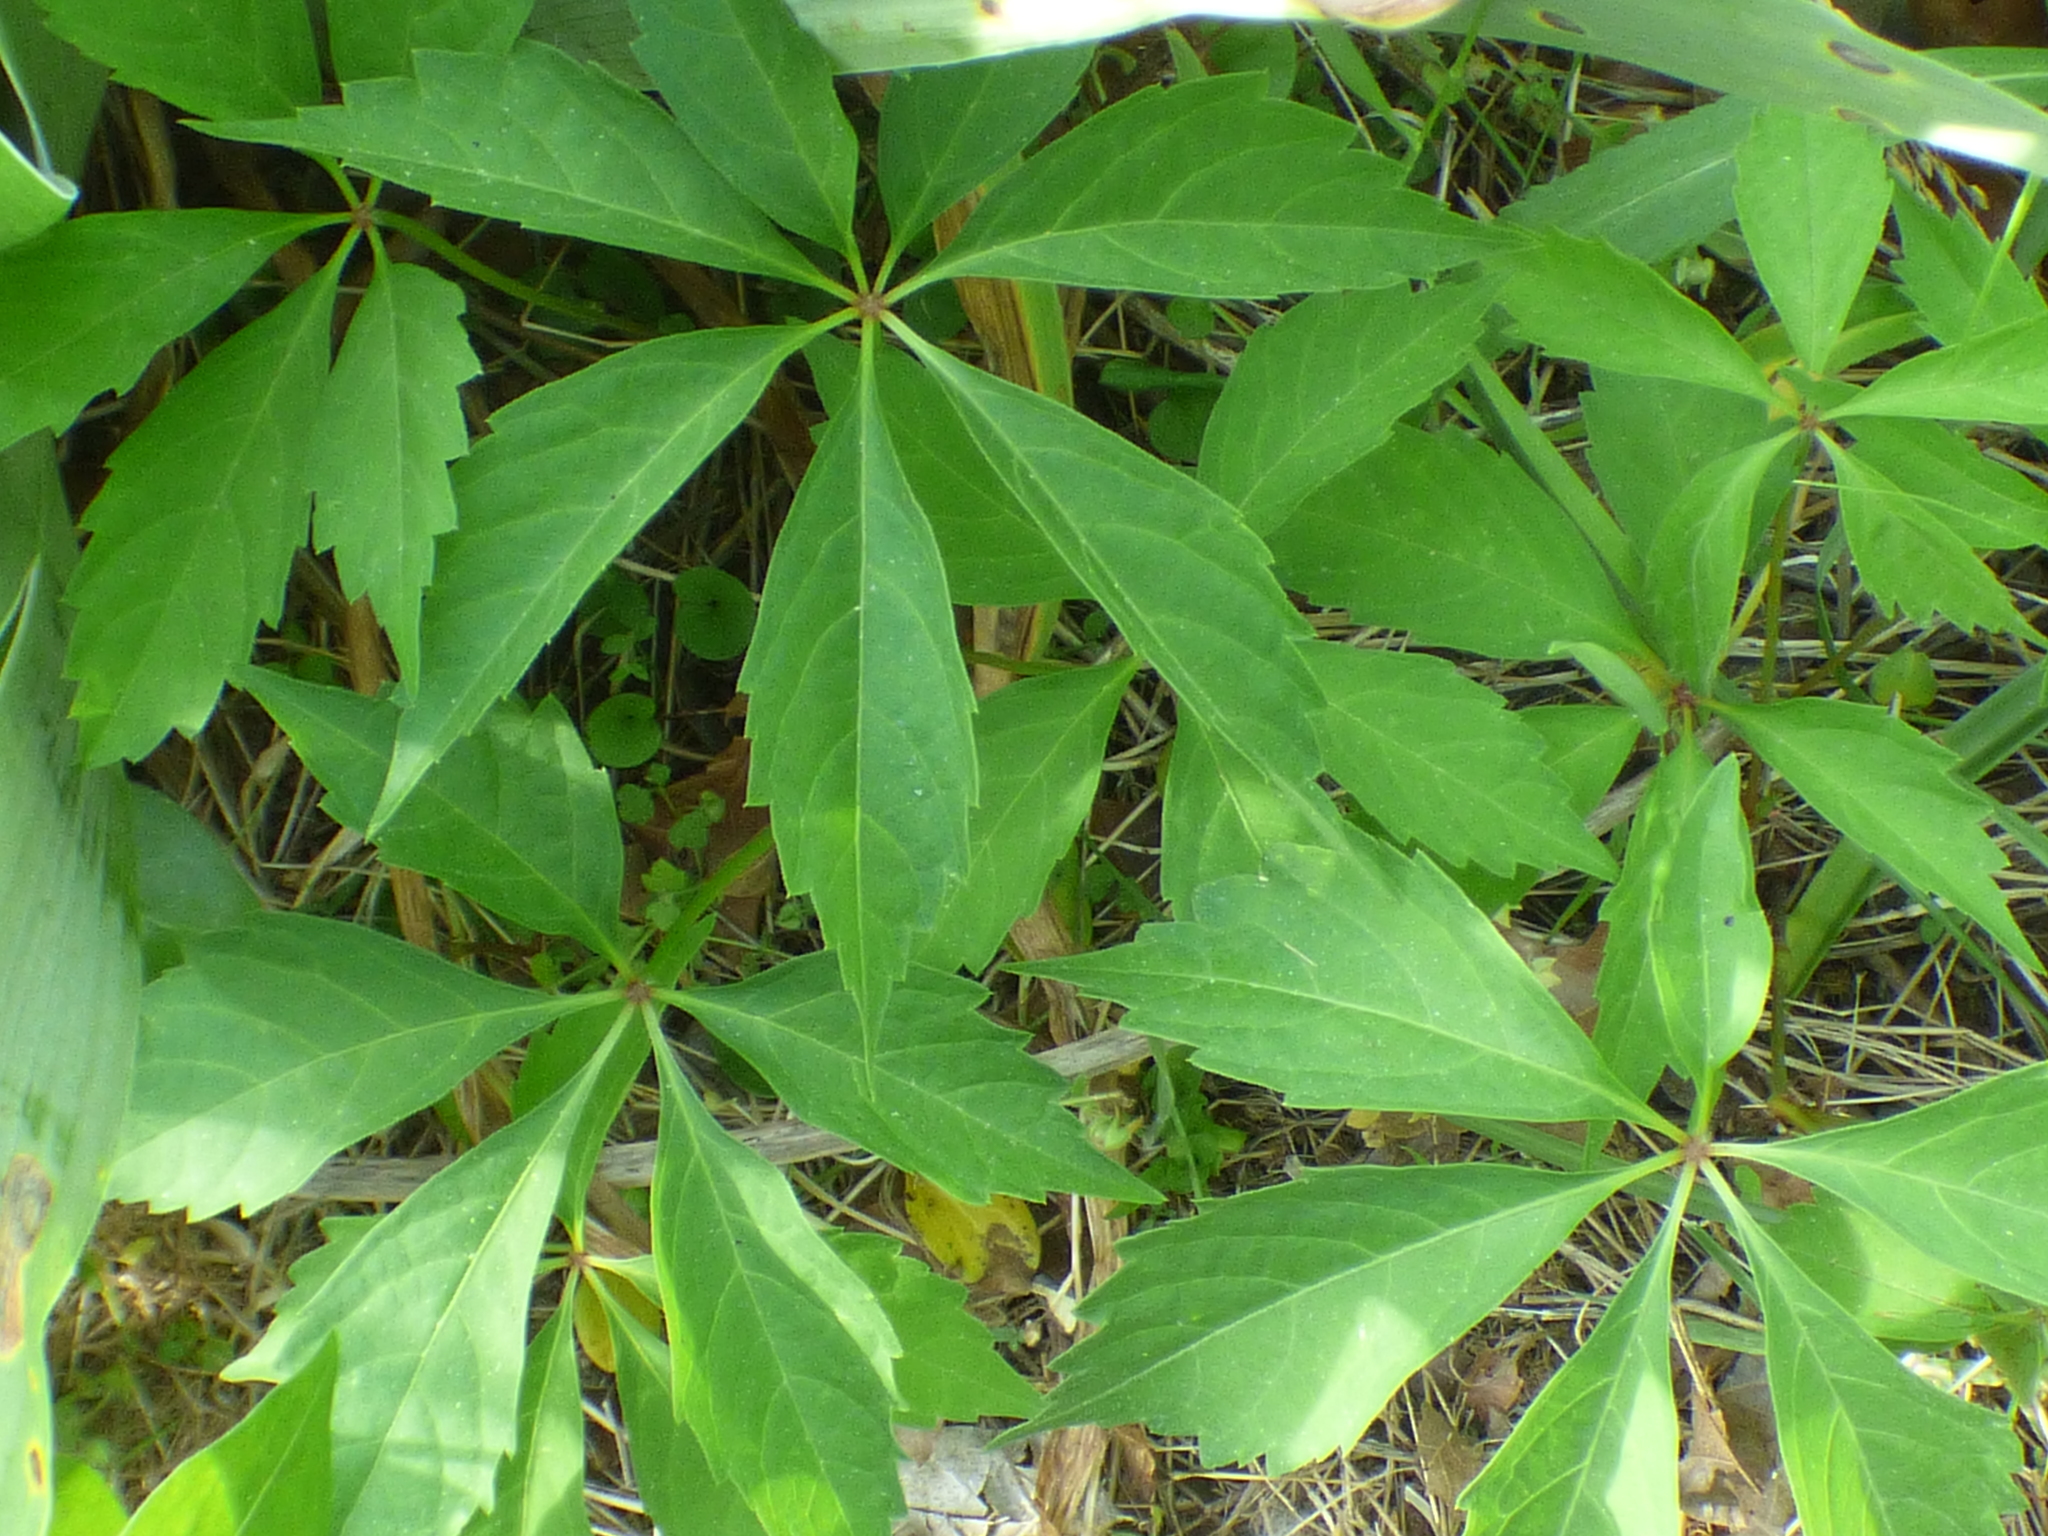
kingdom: Plantae
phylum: Tracheophyta
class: Magnoliopsida
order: Vitales
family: Vitaceae
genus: Parthenocissus
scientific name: Parthenocissus quinquefolia
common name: Virginia-creeper
